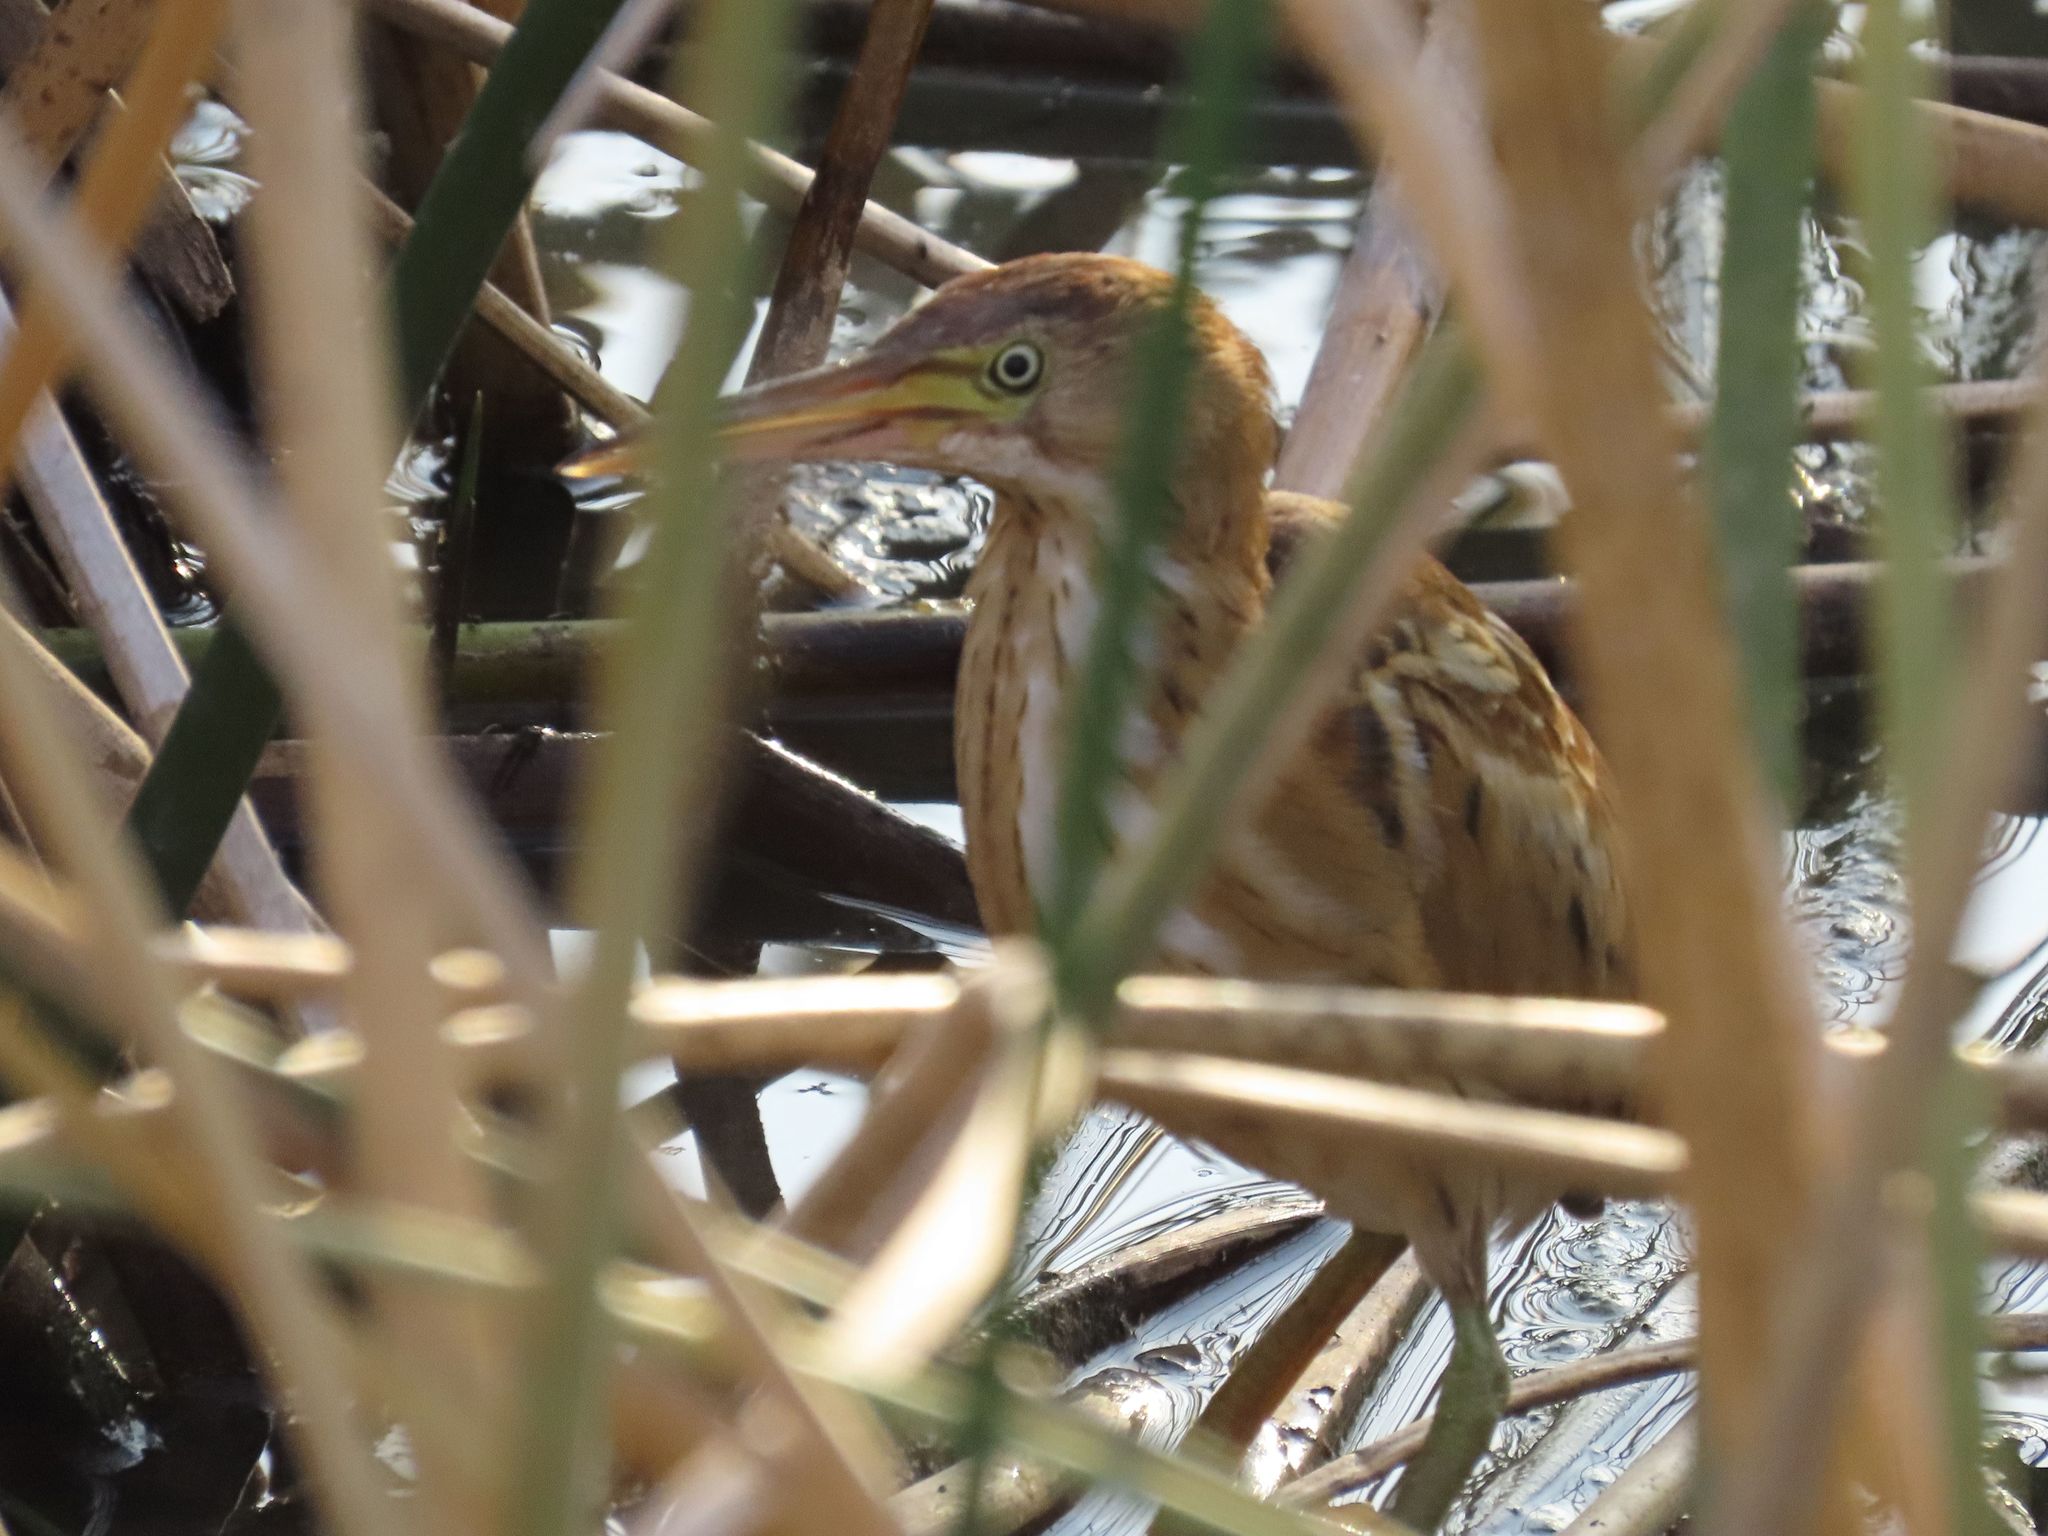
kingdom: Animalia
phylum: Chordata
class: Aves
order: Pelecaniformes
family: Ardeidae
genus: Ixobrychus
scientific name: Ixobrychus exilis
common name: Least bittern
